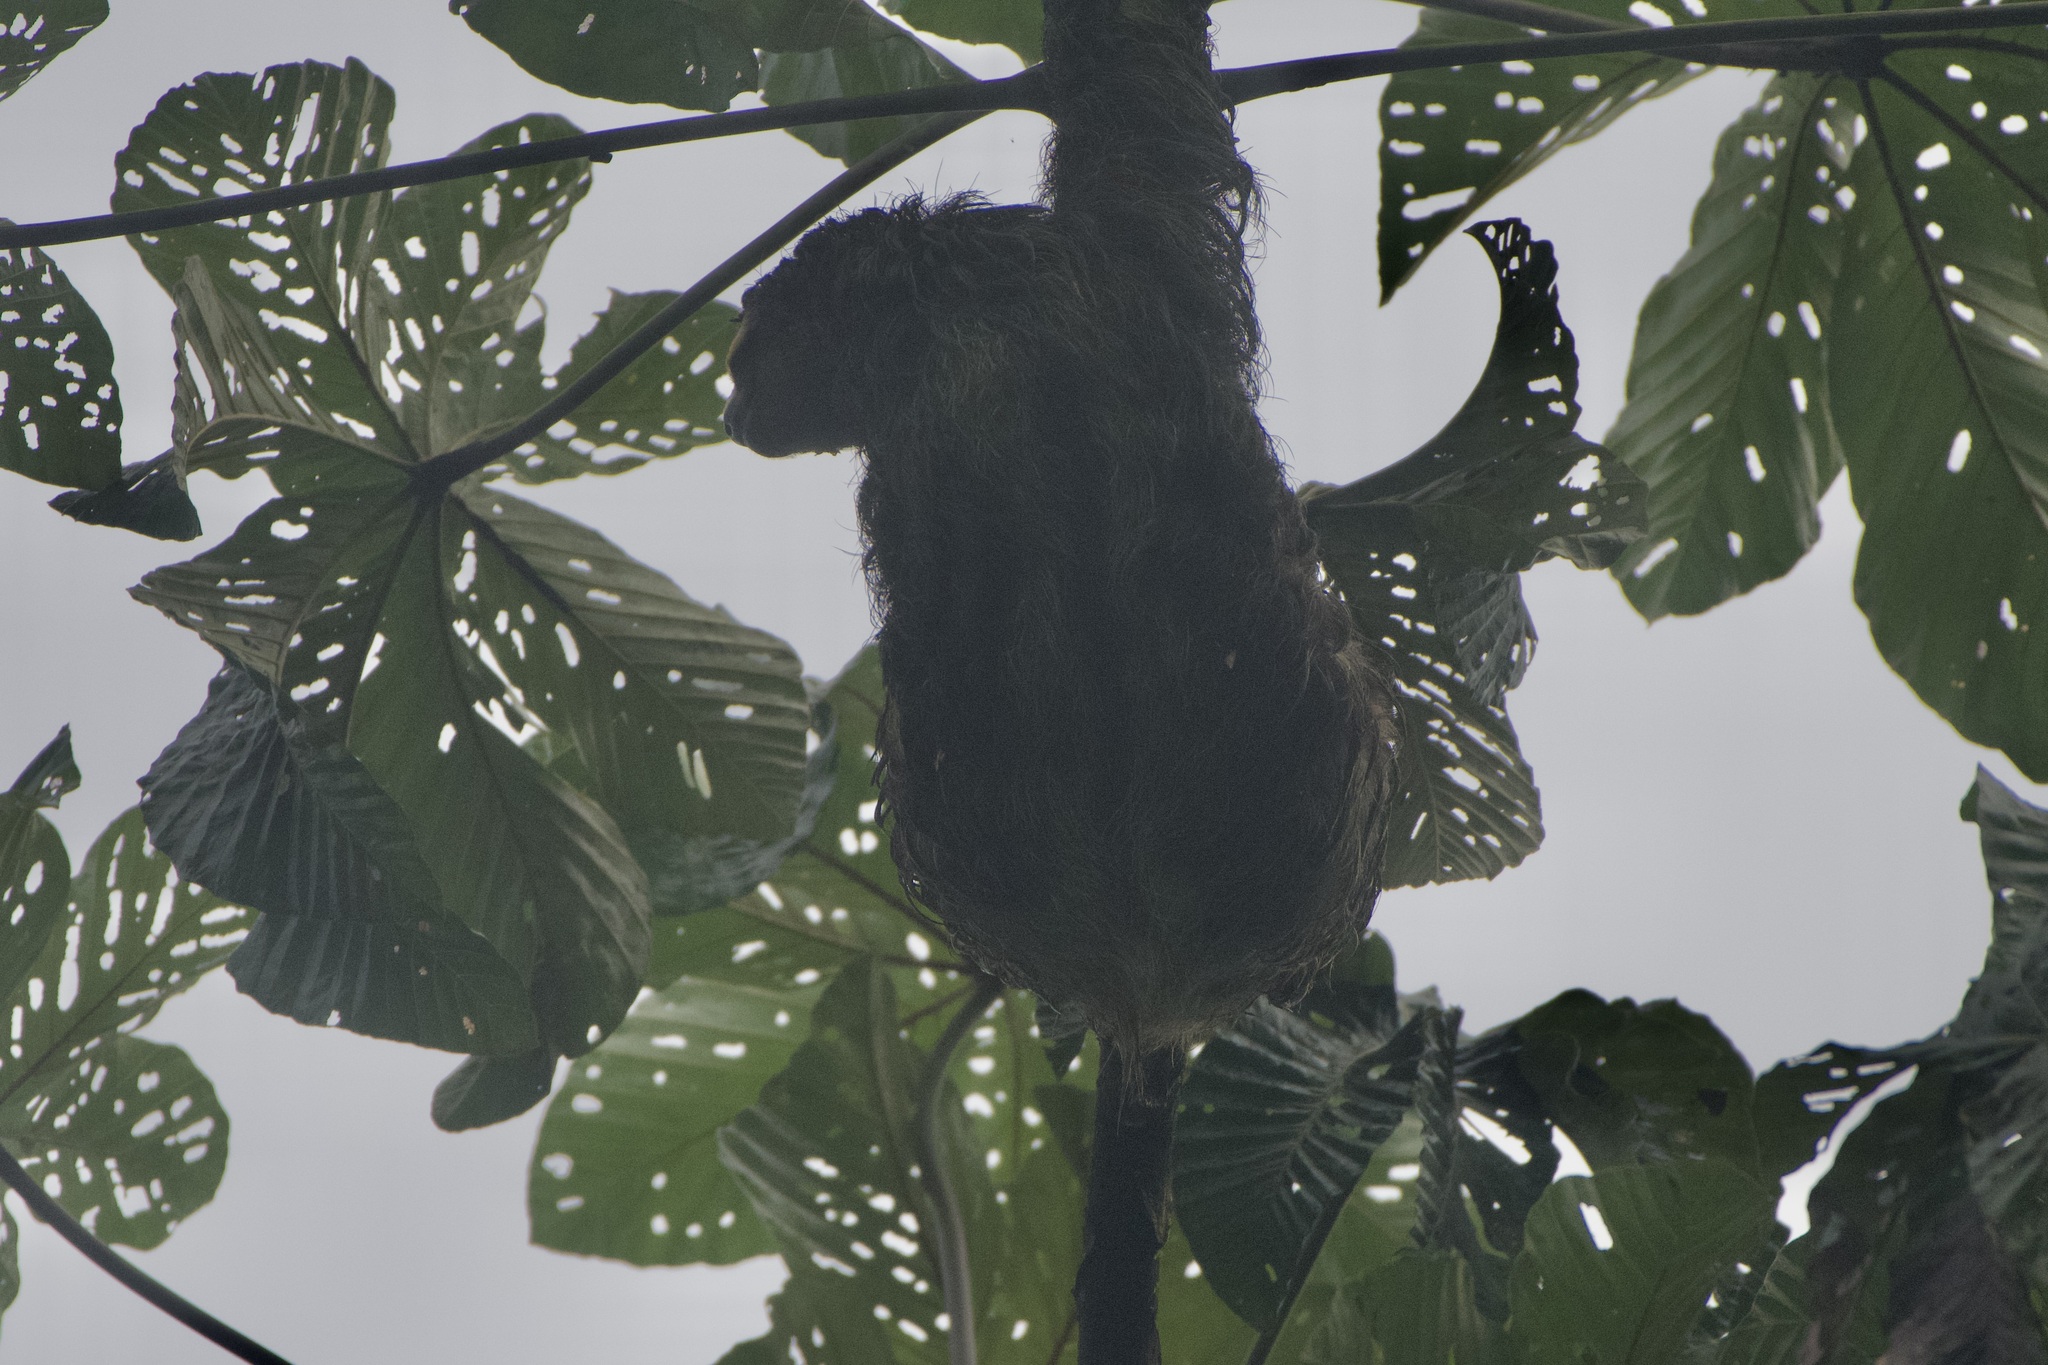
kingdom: Animalia
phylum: Chordata
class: Mammalia
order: Pilosa
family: Bradypodidae
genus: Bradypus
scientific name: Bradypus variegatus
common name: Brown-throated three-toed sloth
